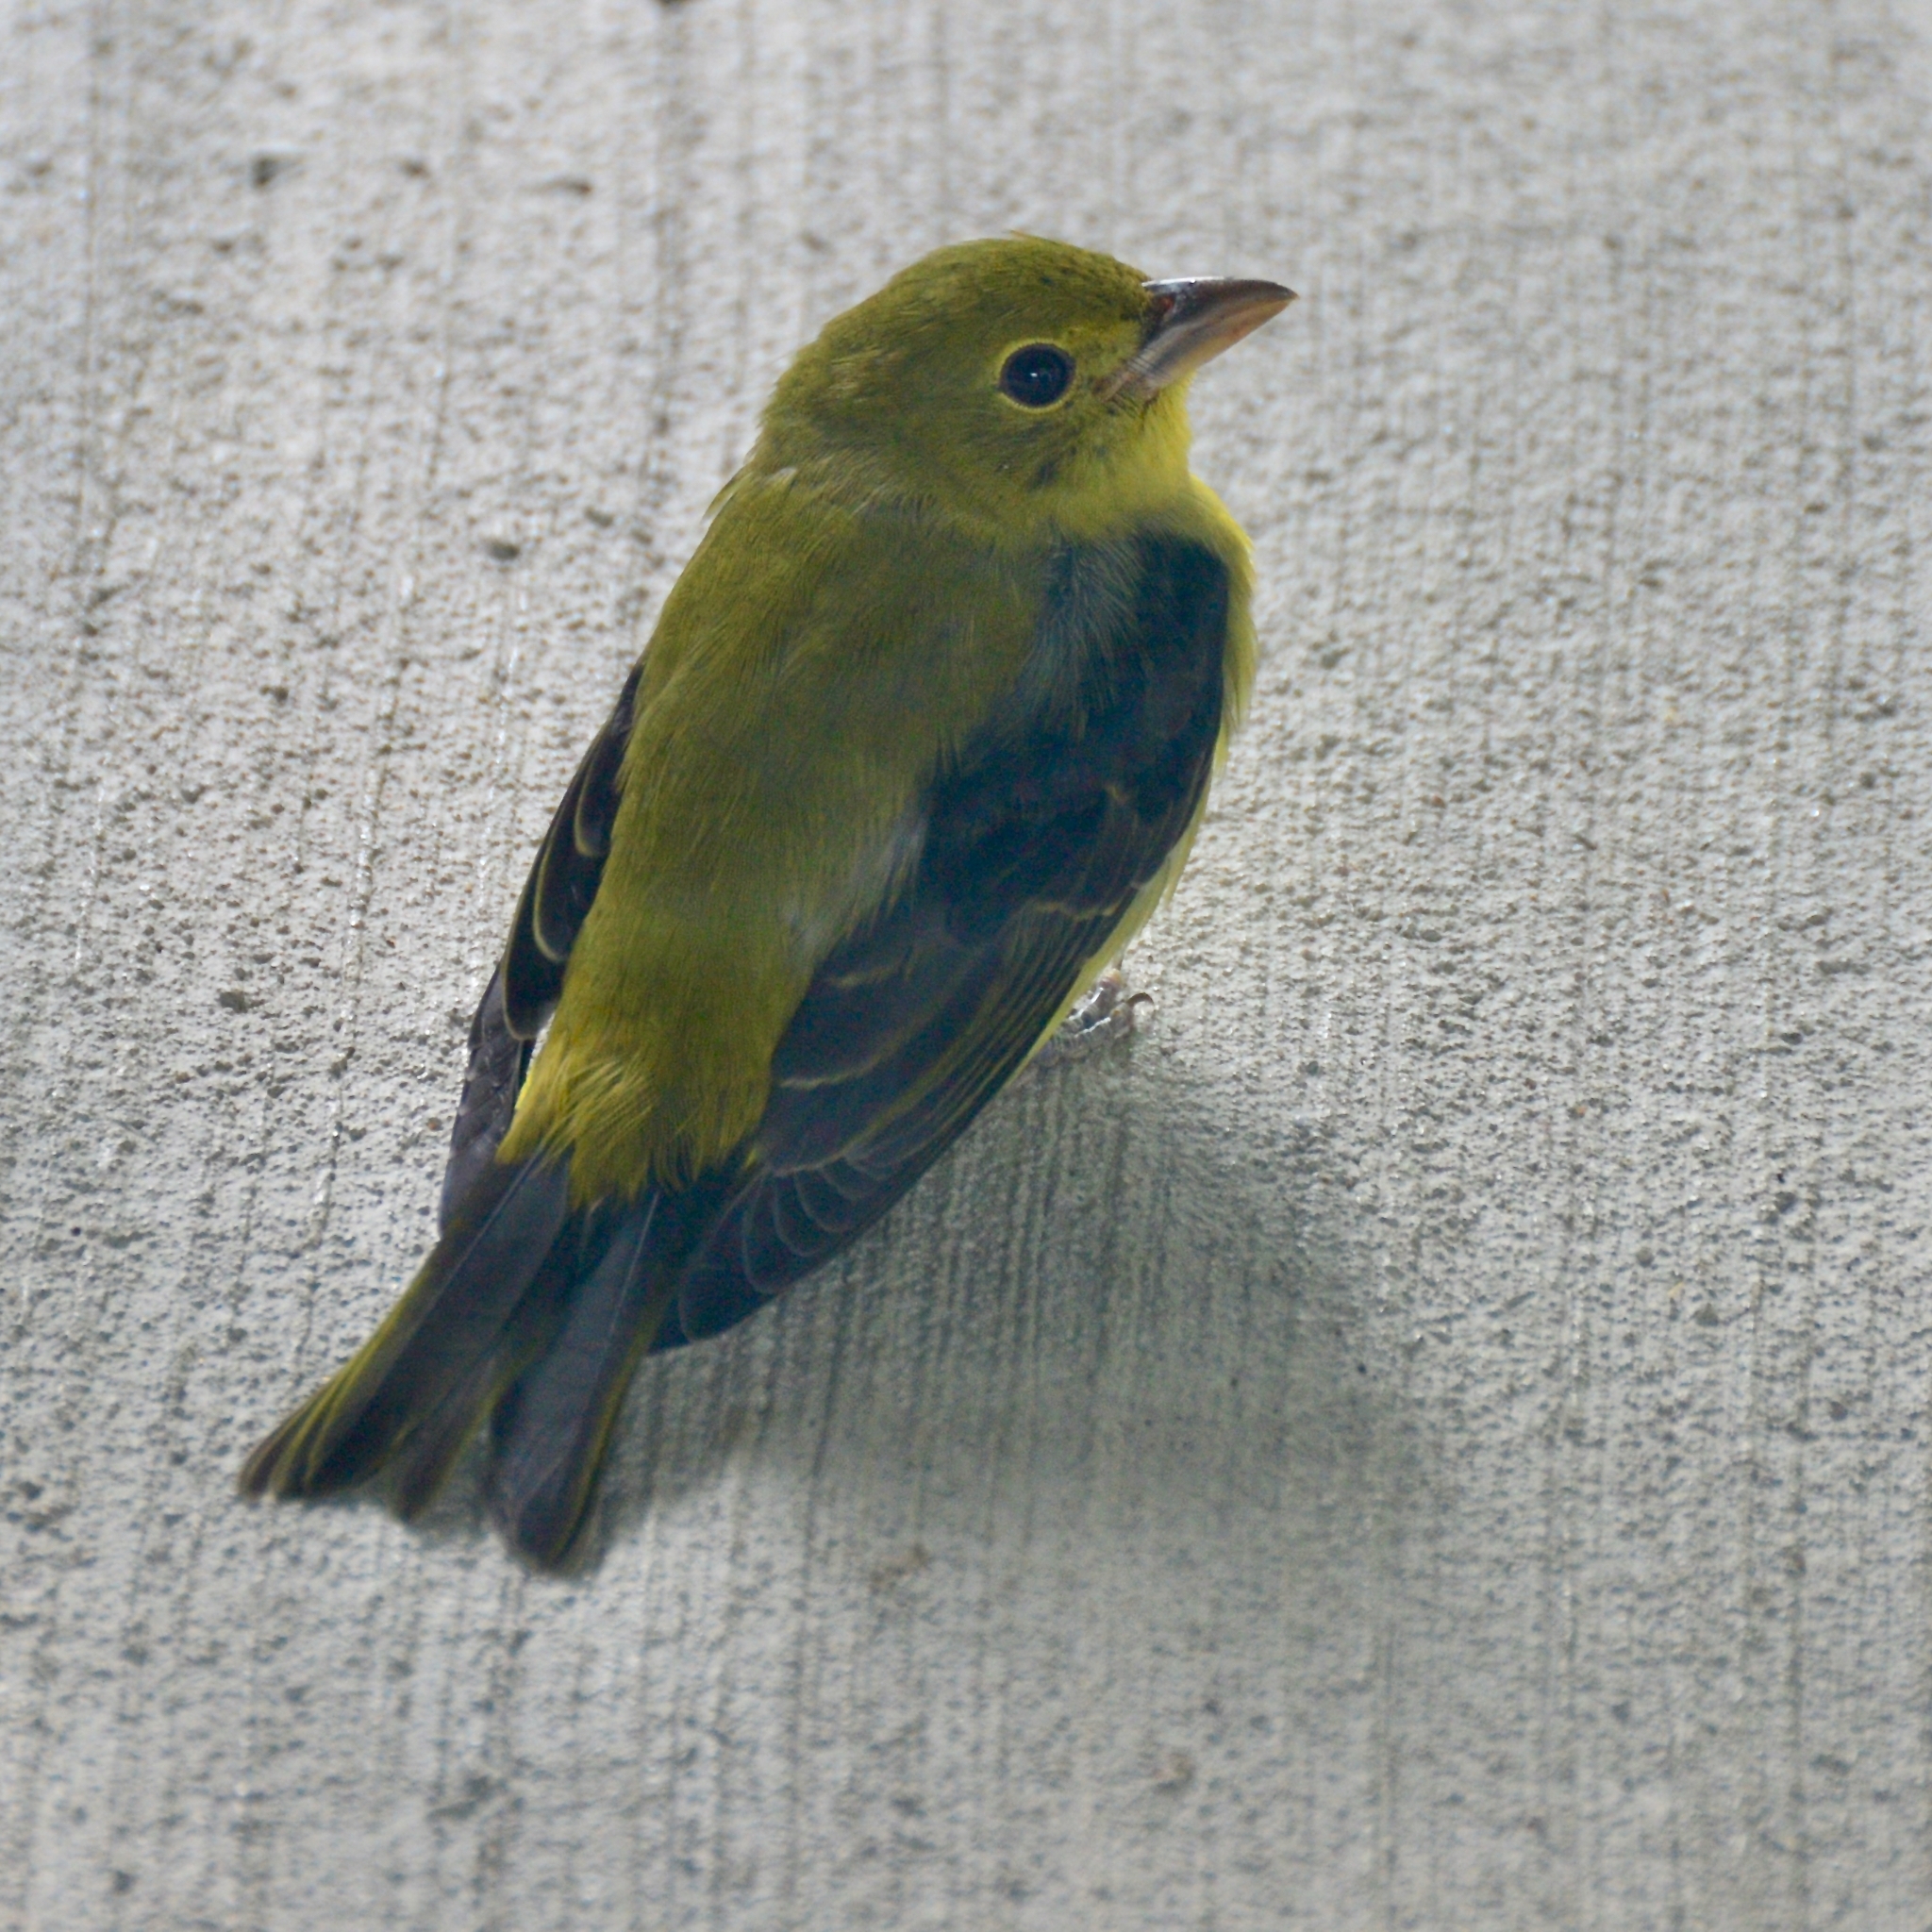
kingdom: Animalia
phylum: Chordata
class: Aves
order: Passeriformes
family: Cardinalidae
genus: Piranga
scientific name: Piranga olivacea
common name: Scarlet tanager
